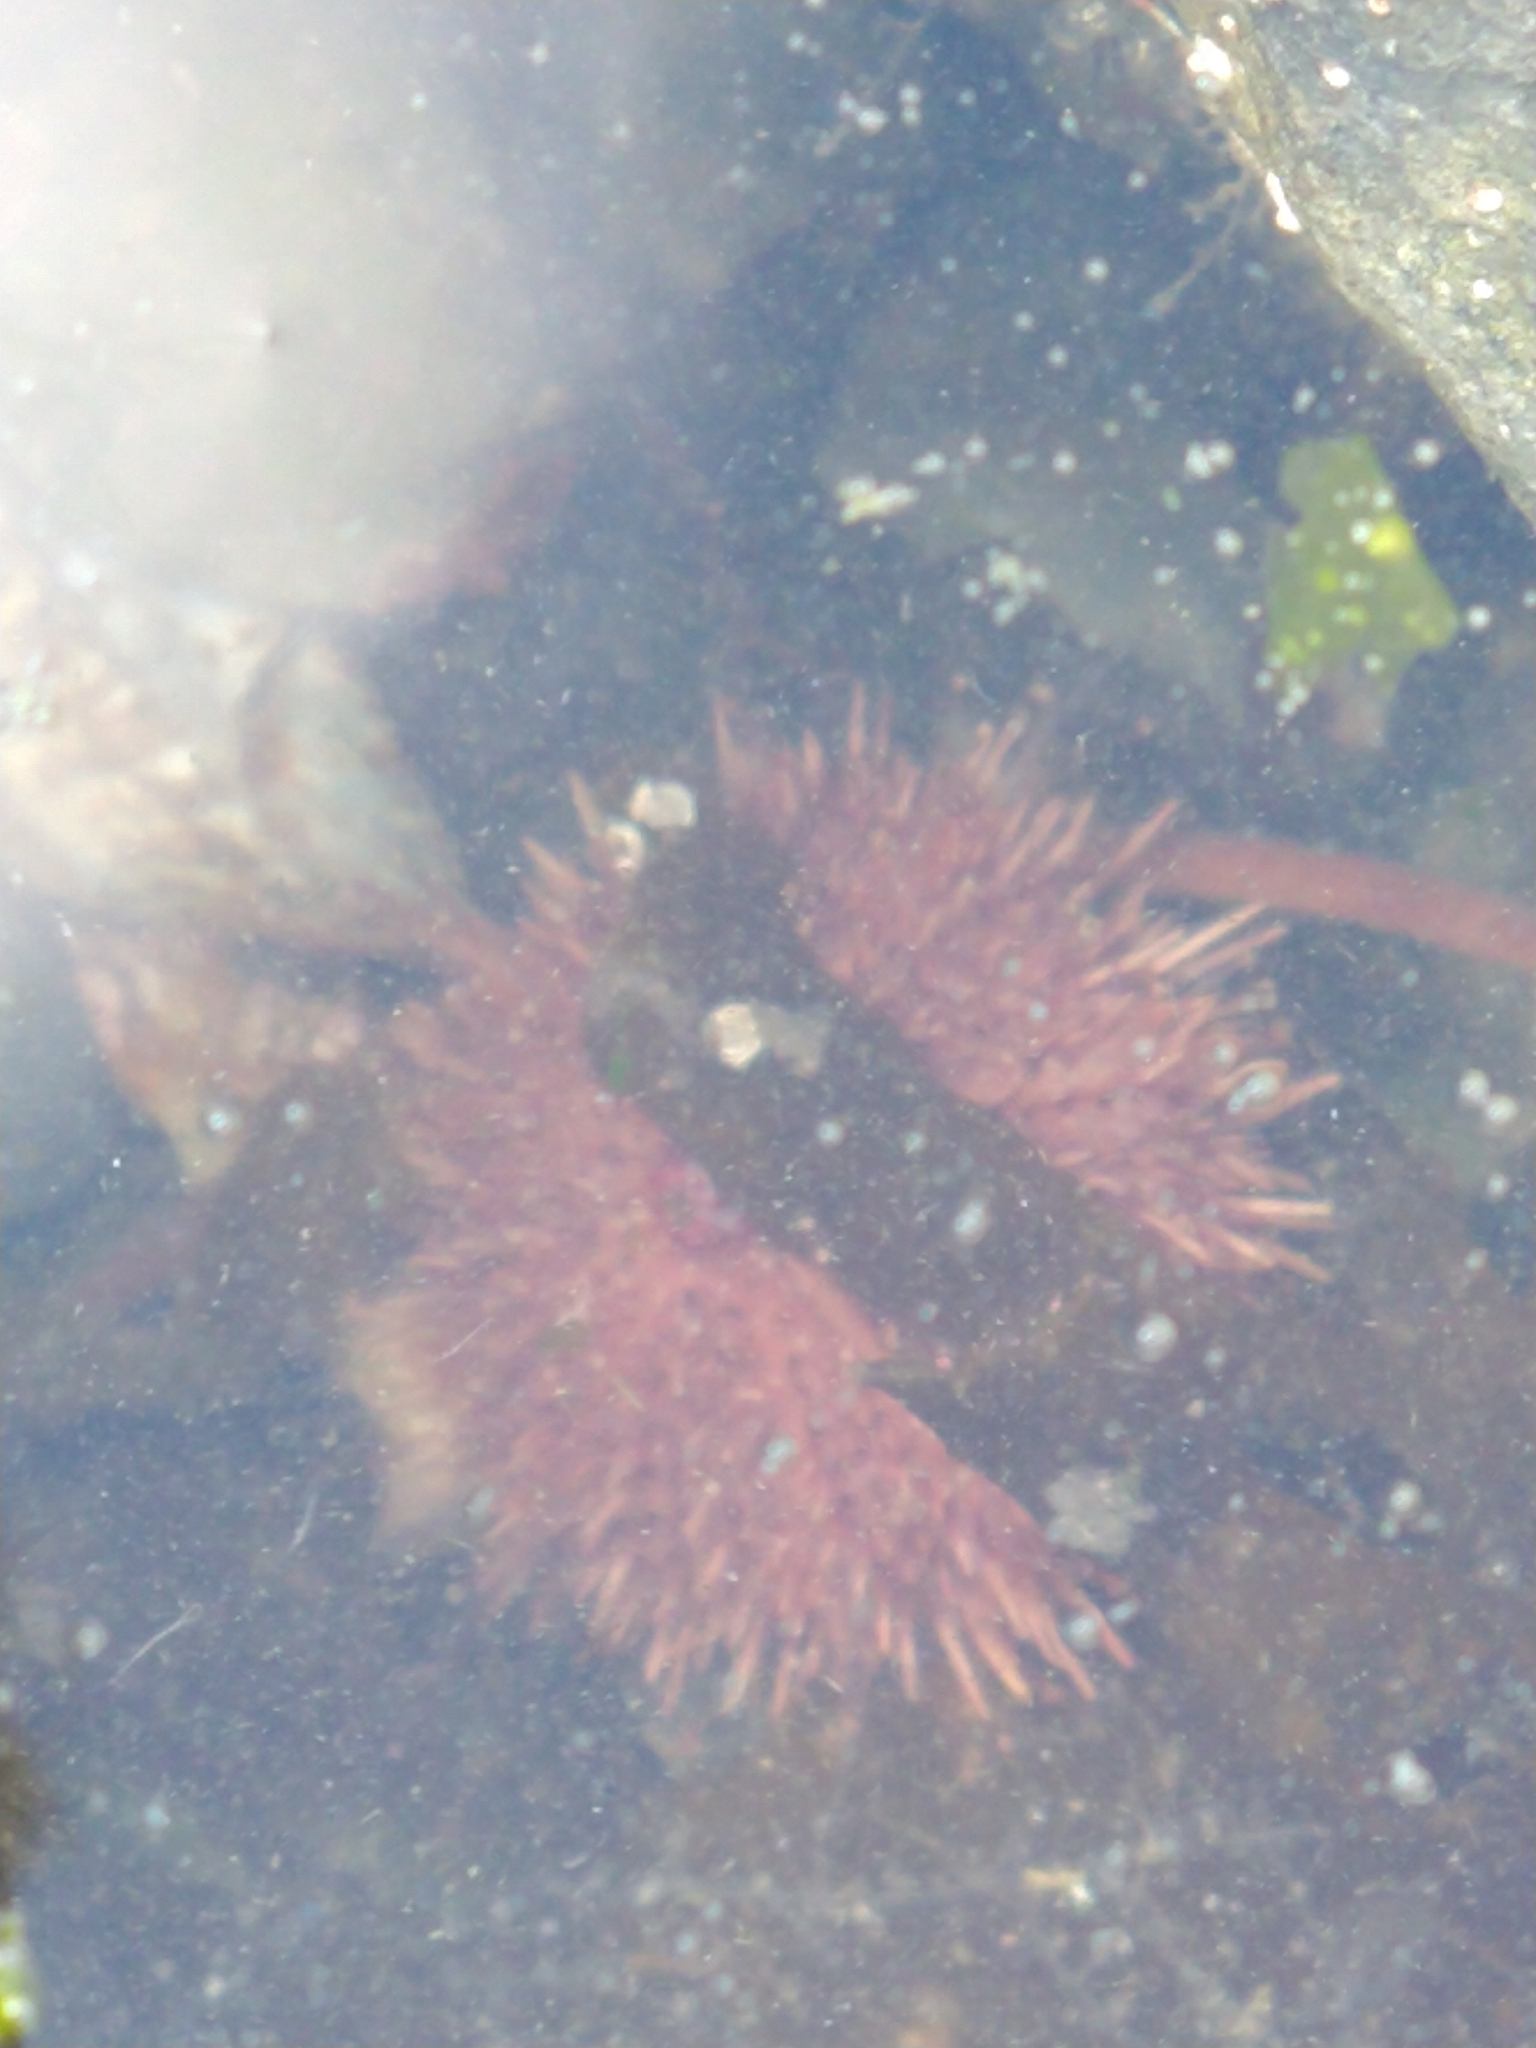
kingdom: Animalia
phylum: Echinodermata
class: Echinoidea
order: Camarodonta
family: Temnopleuridae
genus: Pseudechinus
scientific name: Pseudechinus magellanicus
